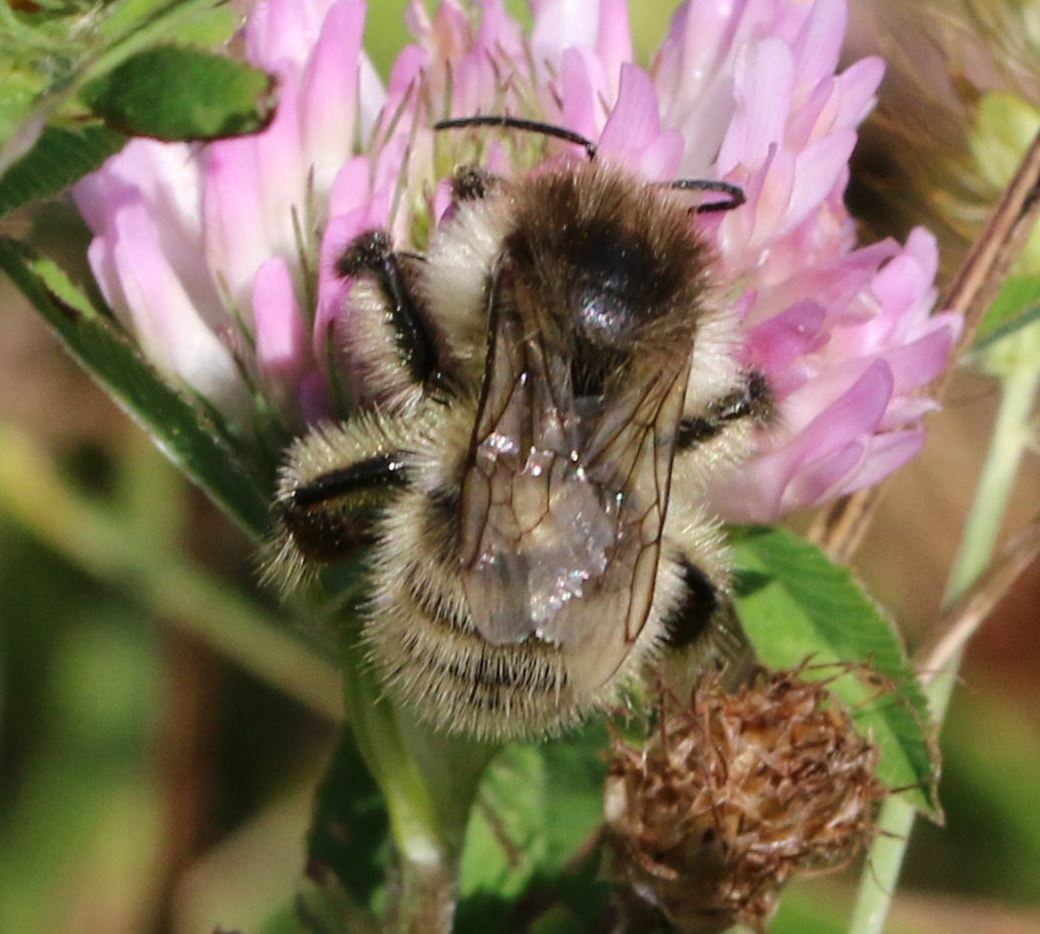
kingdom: Animalia
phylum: Arthropoda
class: Insecta
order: Hymenoptera
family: Apidae
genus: Bombus
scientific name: Bombus humilis
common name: Brown-banded carder-bee
